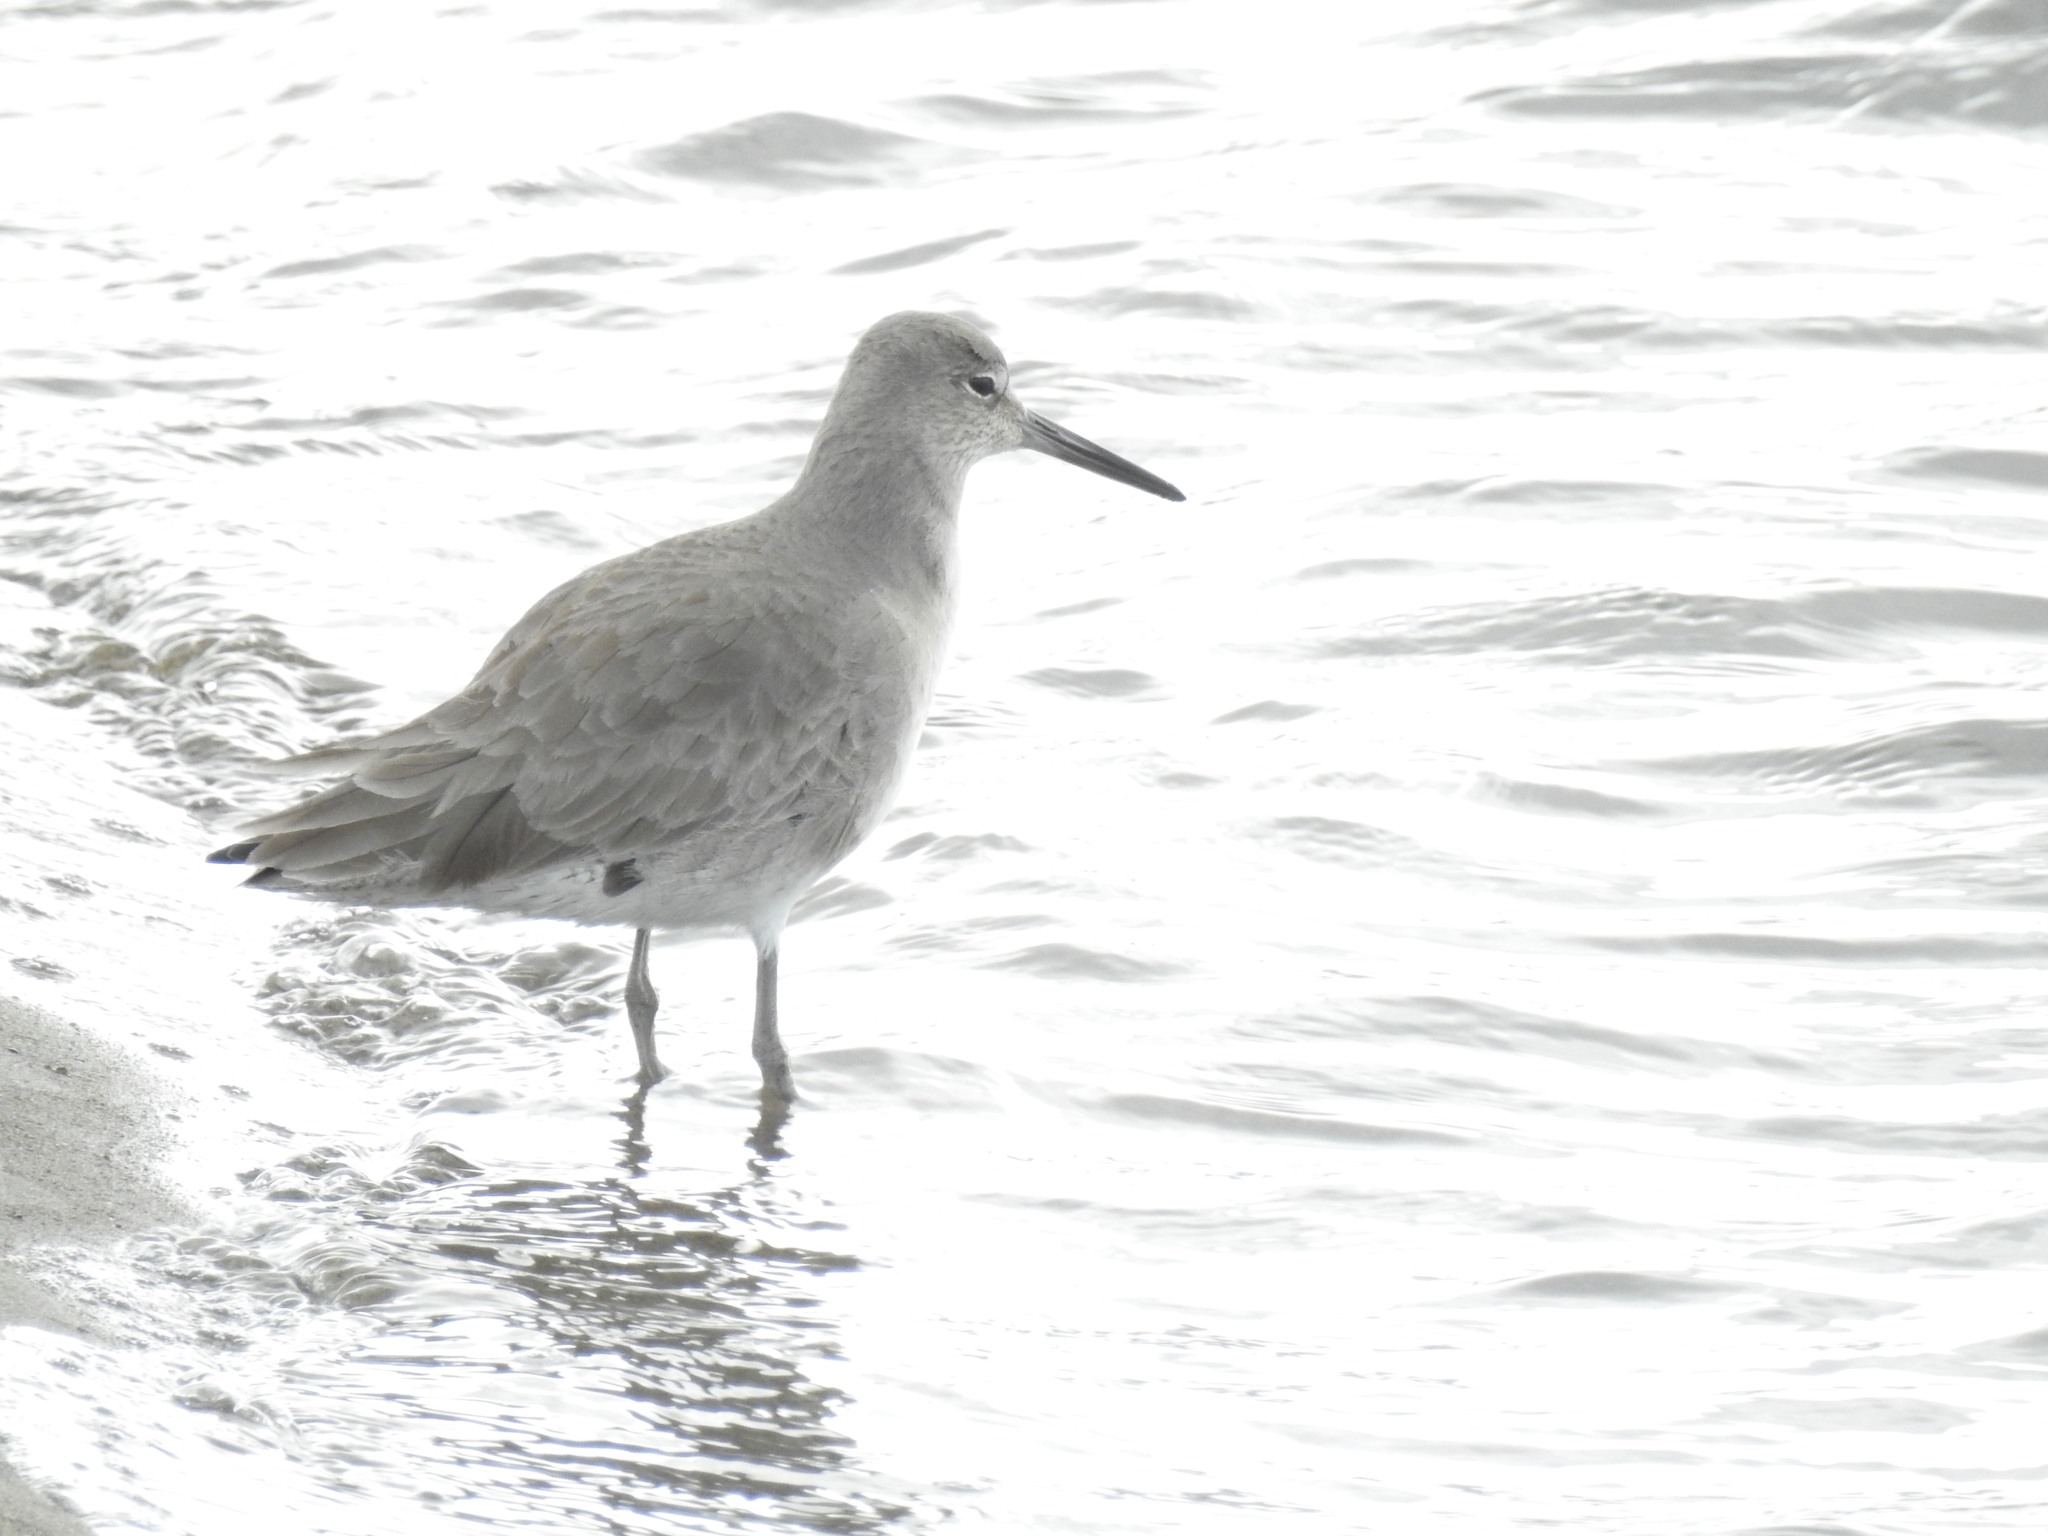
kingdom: Animalia
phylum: Chordata
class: Aves
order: Charadriiformes
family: Scolopacidae
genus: Tringa
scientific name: Tringa semipalmata
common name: Willet
